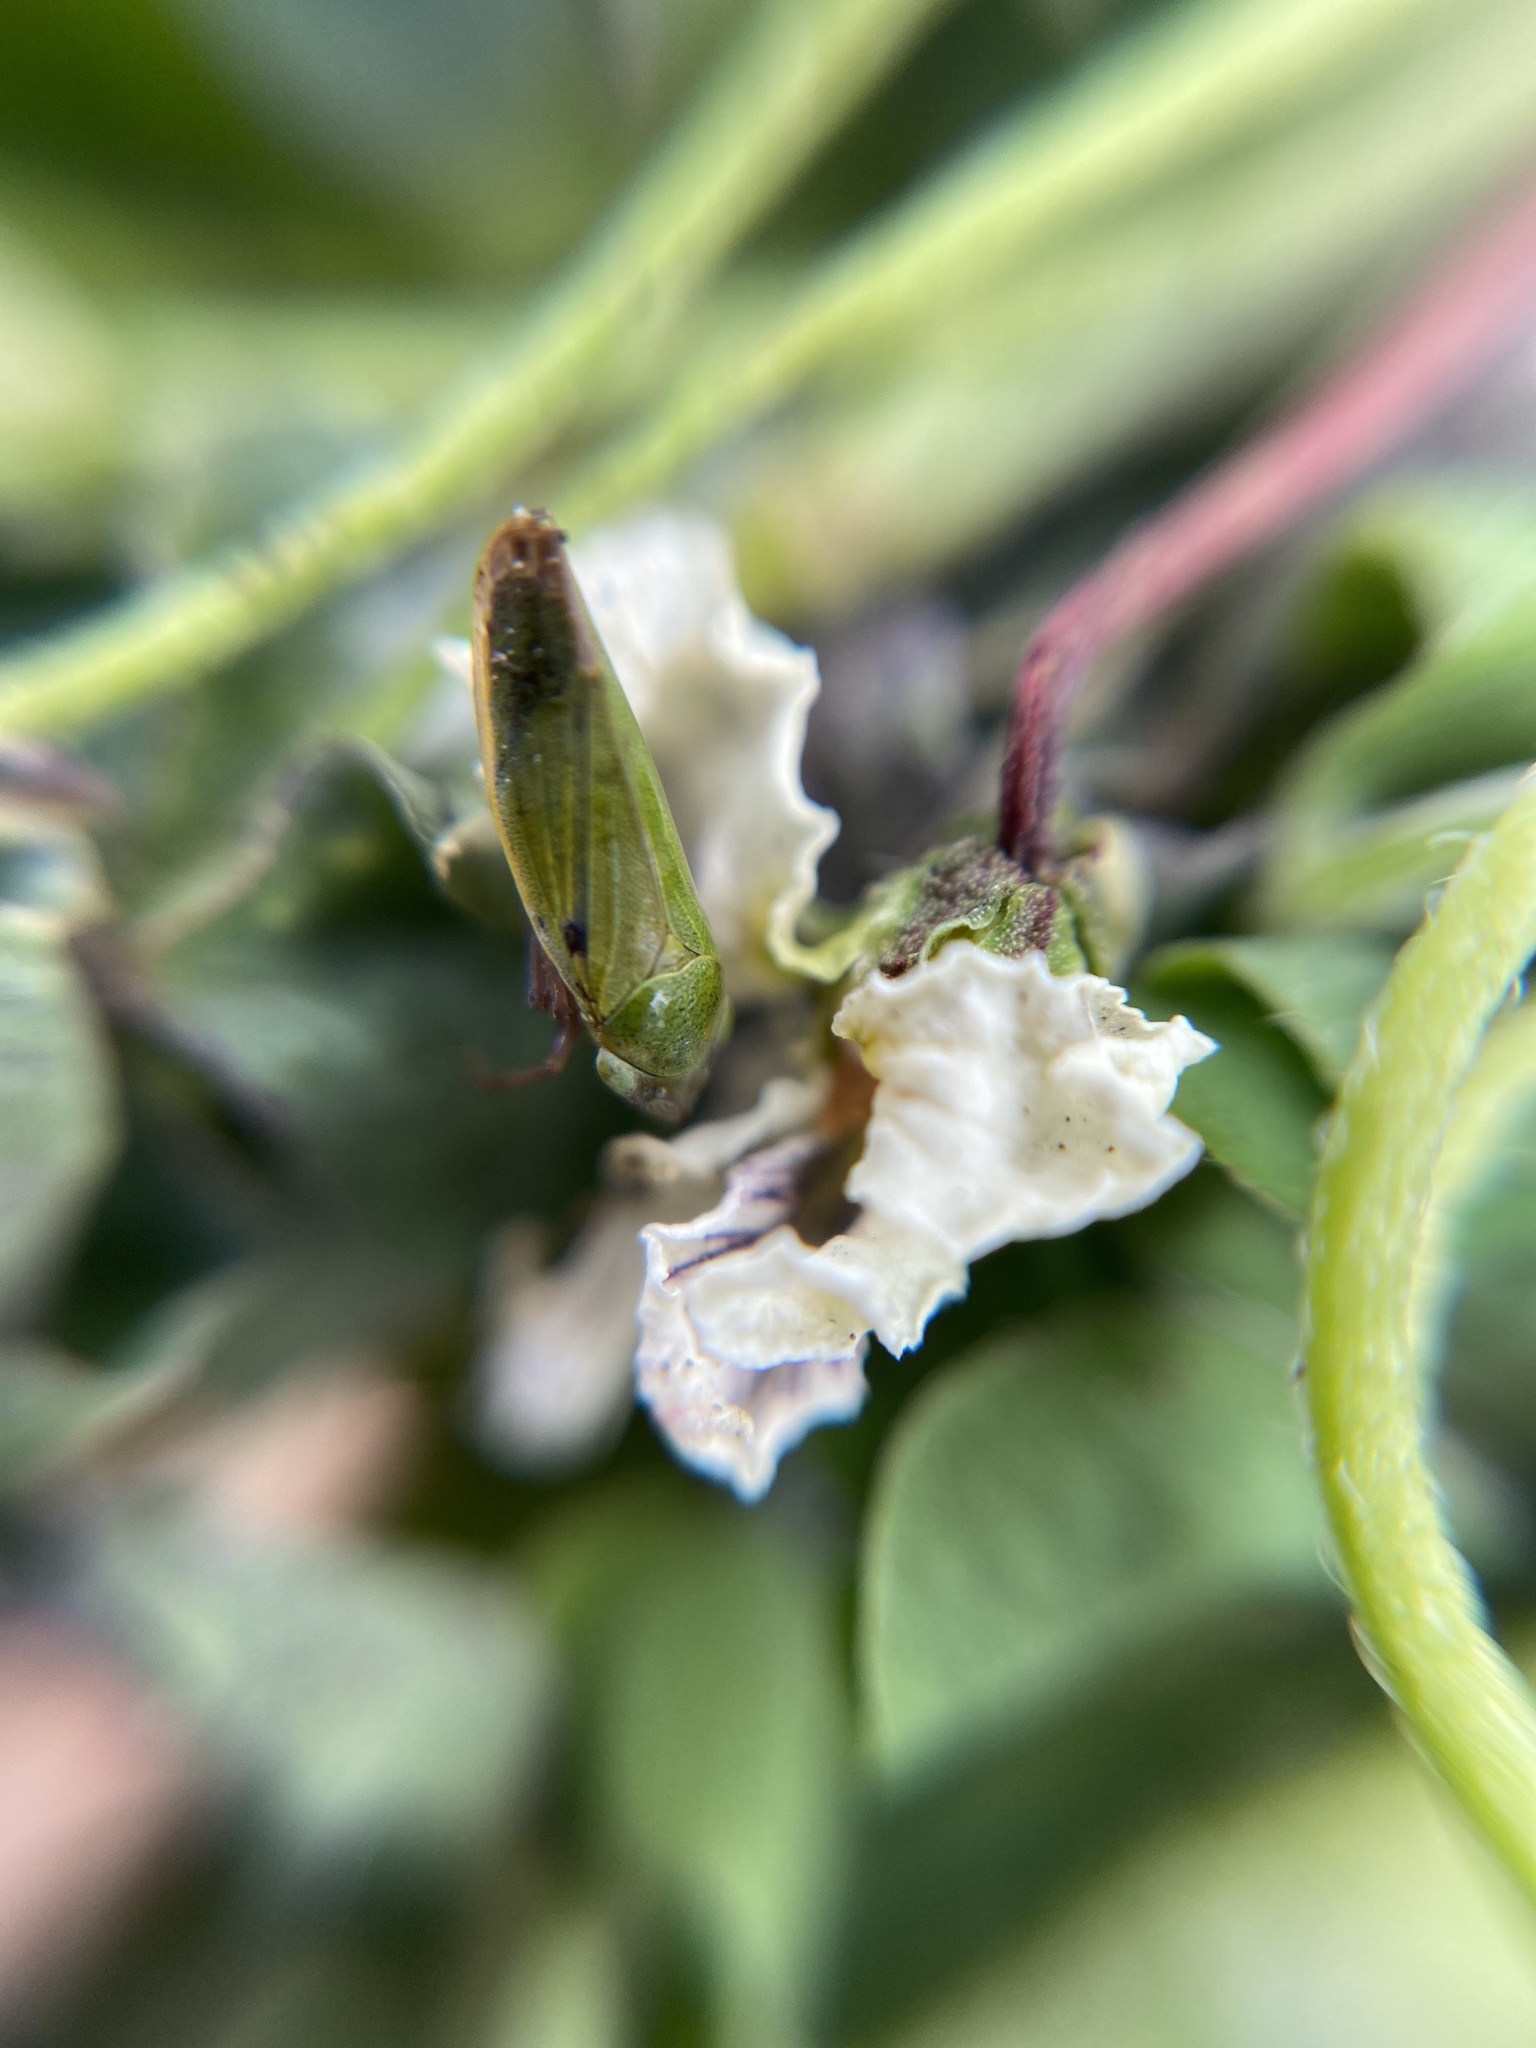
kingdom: Animalia
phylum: Arthropoda
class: Insecta
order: Hemiptera
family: Cicadellidae
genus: Helochara
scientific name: Helochara communis
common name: Bog leafhopper
